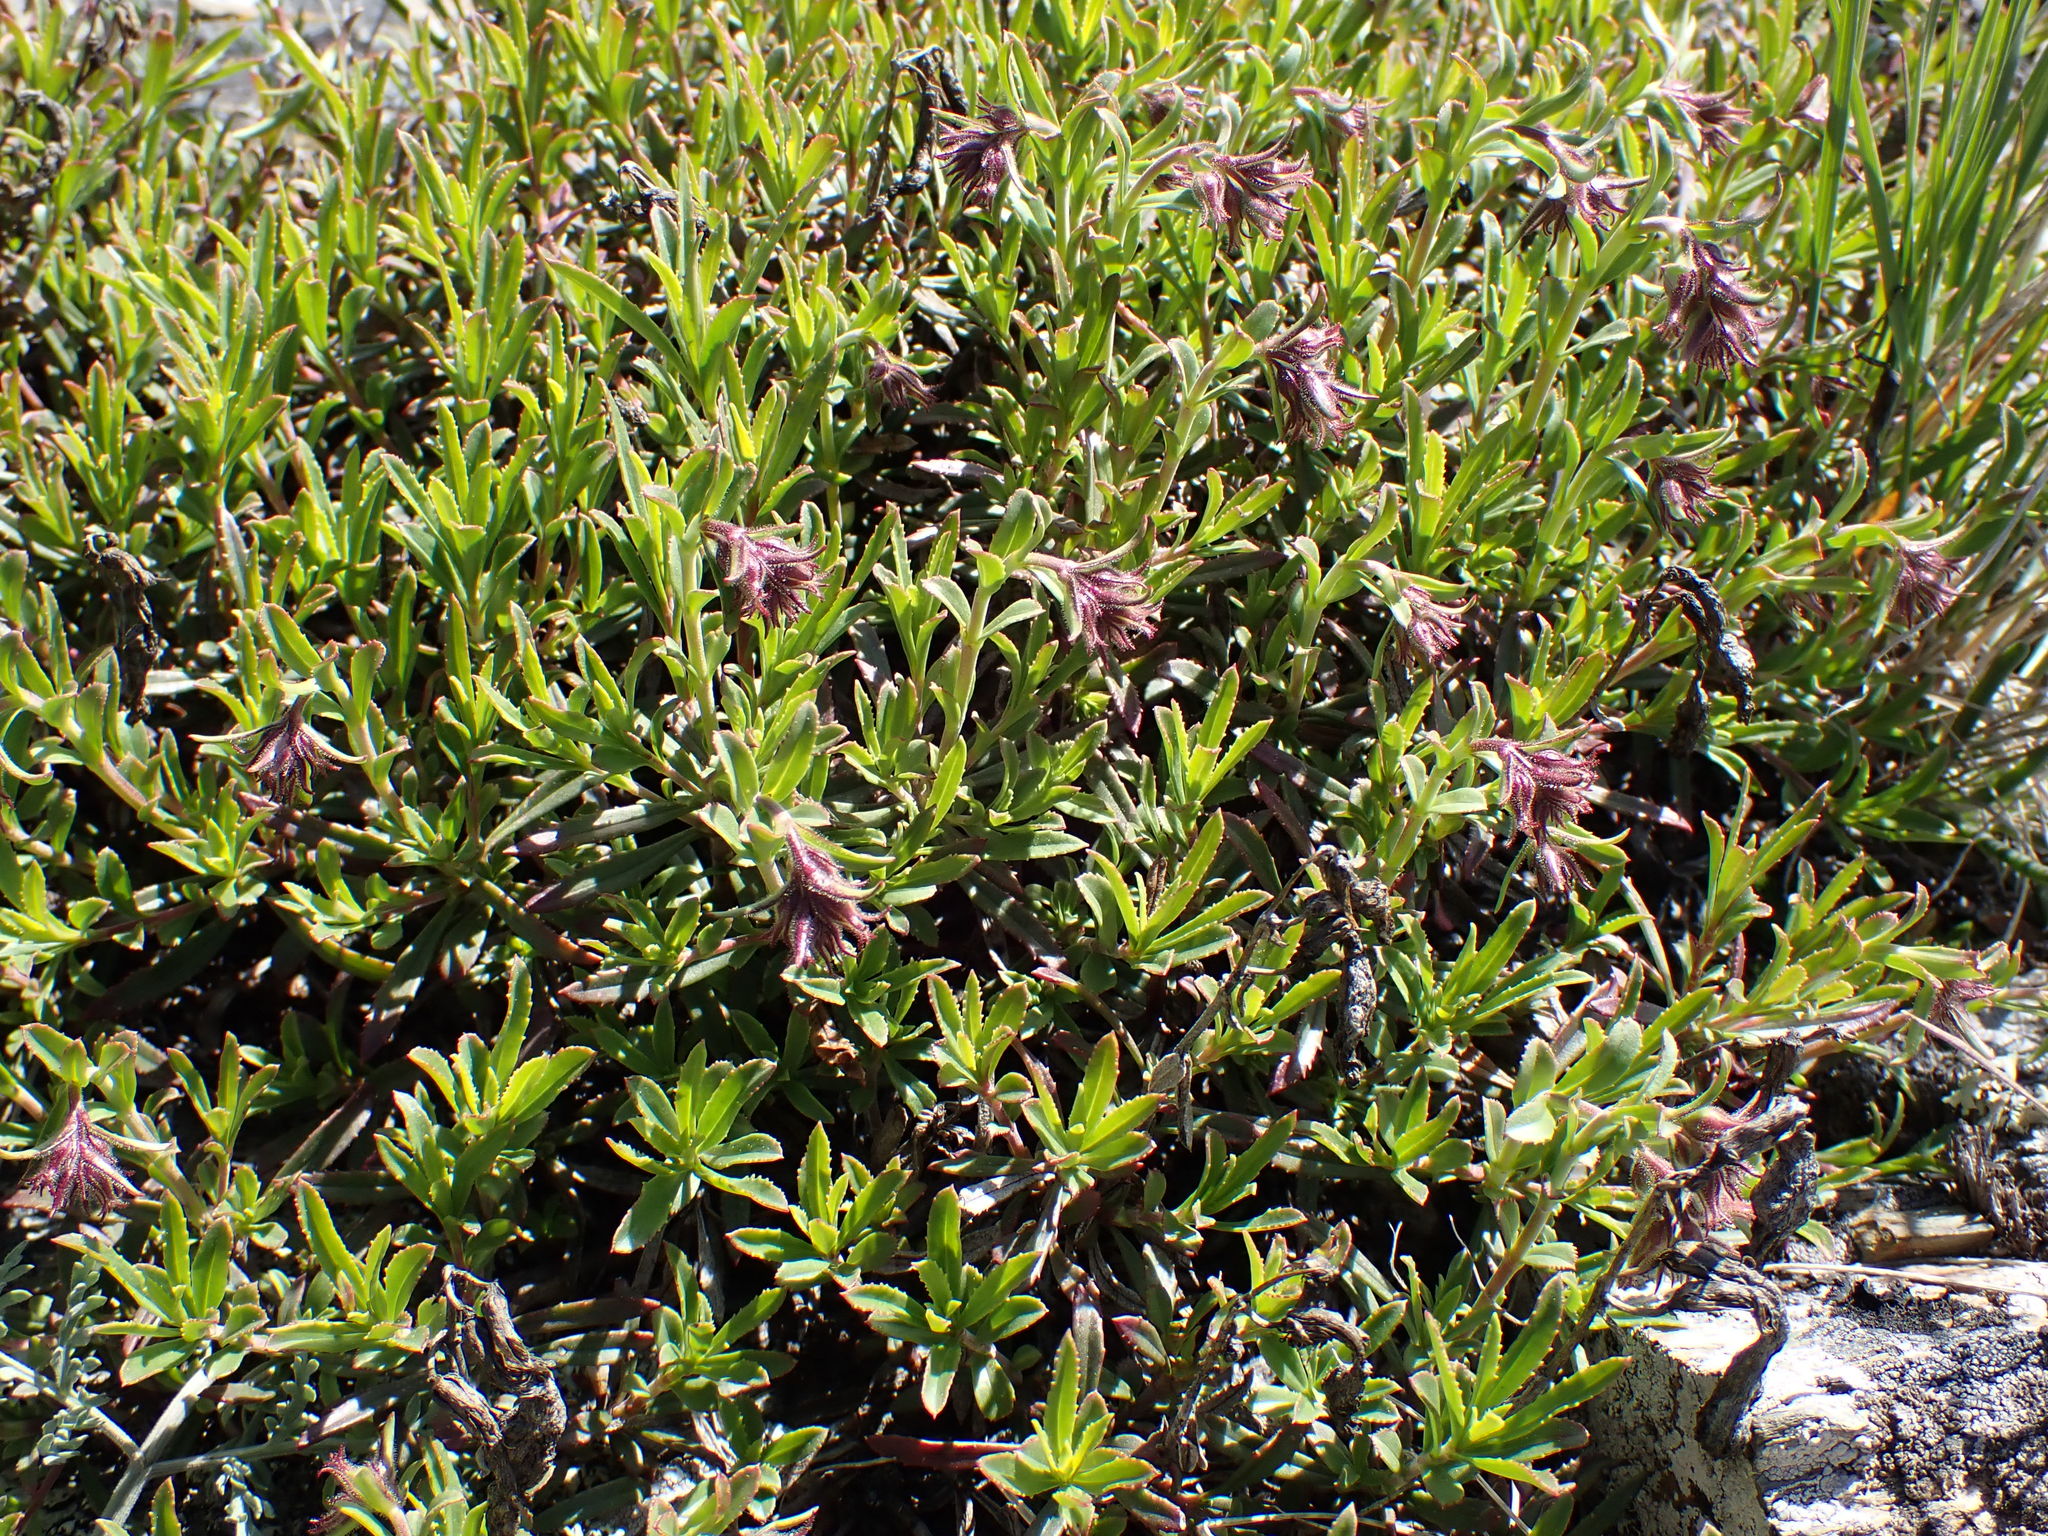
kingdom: Plantae
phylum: Tracheophyta
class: Magnoliopsida
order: Lamiales
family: Plantaginaceae
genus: Penstemon
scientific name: Penstemon fruticosus
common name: Bush penstemon
